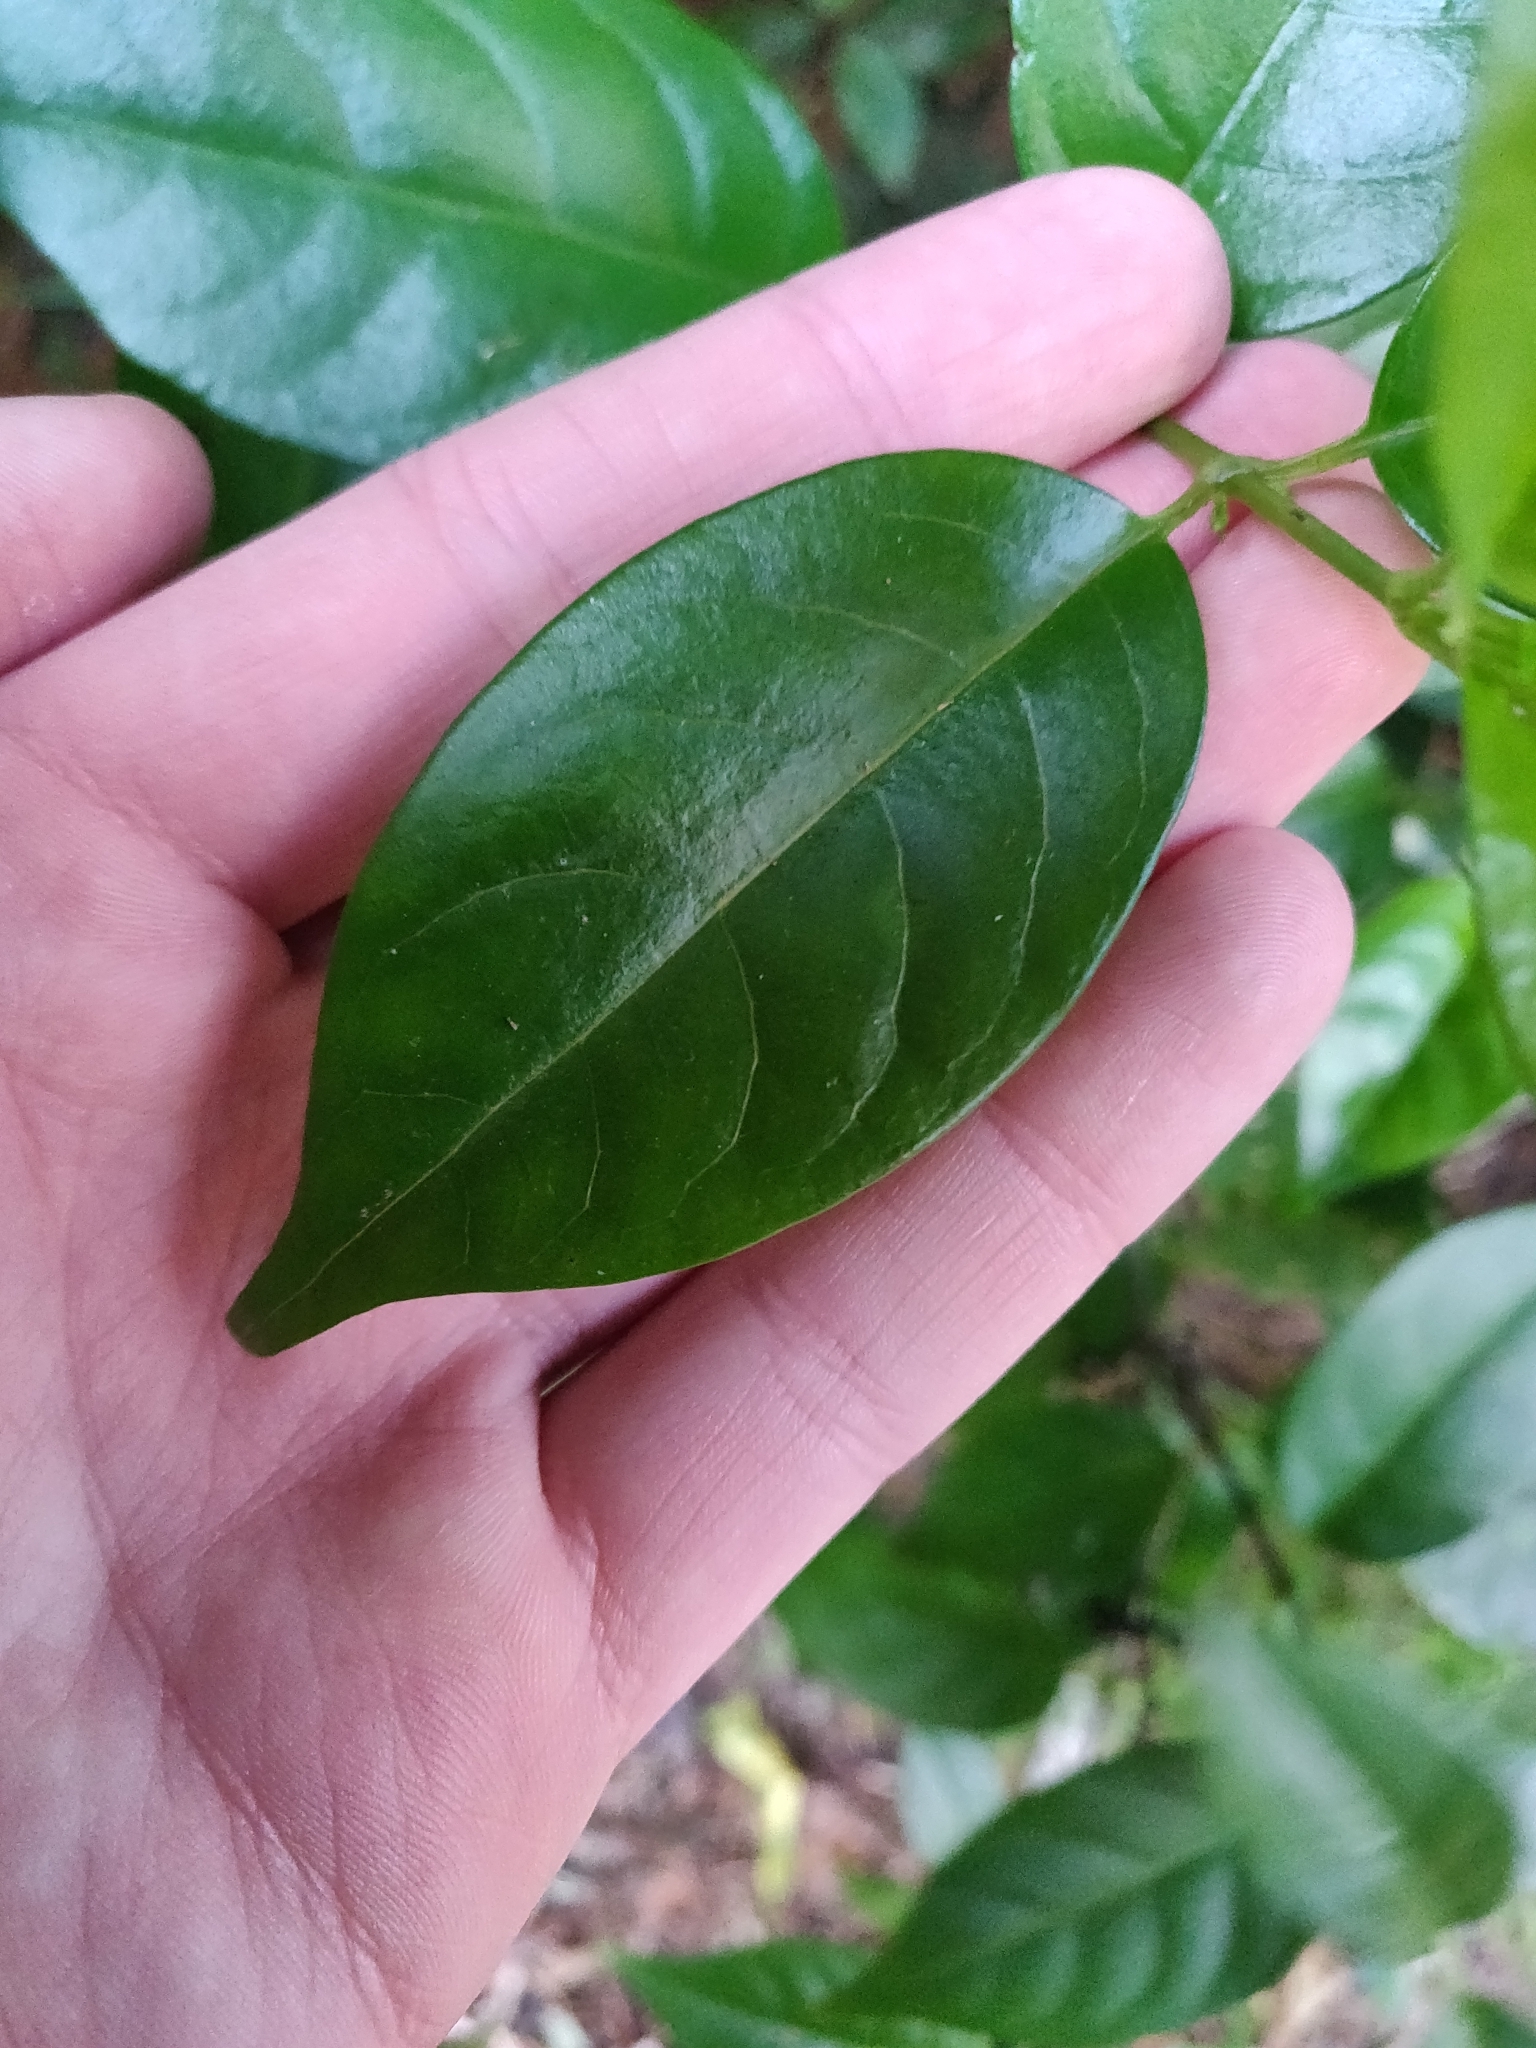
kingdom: Plantae
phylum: Tracheophyta
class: Magnoliopsida
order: Gentianales
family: Loganiaceae
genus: Geniostoma
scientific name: Geniostoma ligustrifolium
